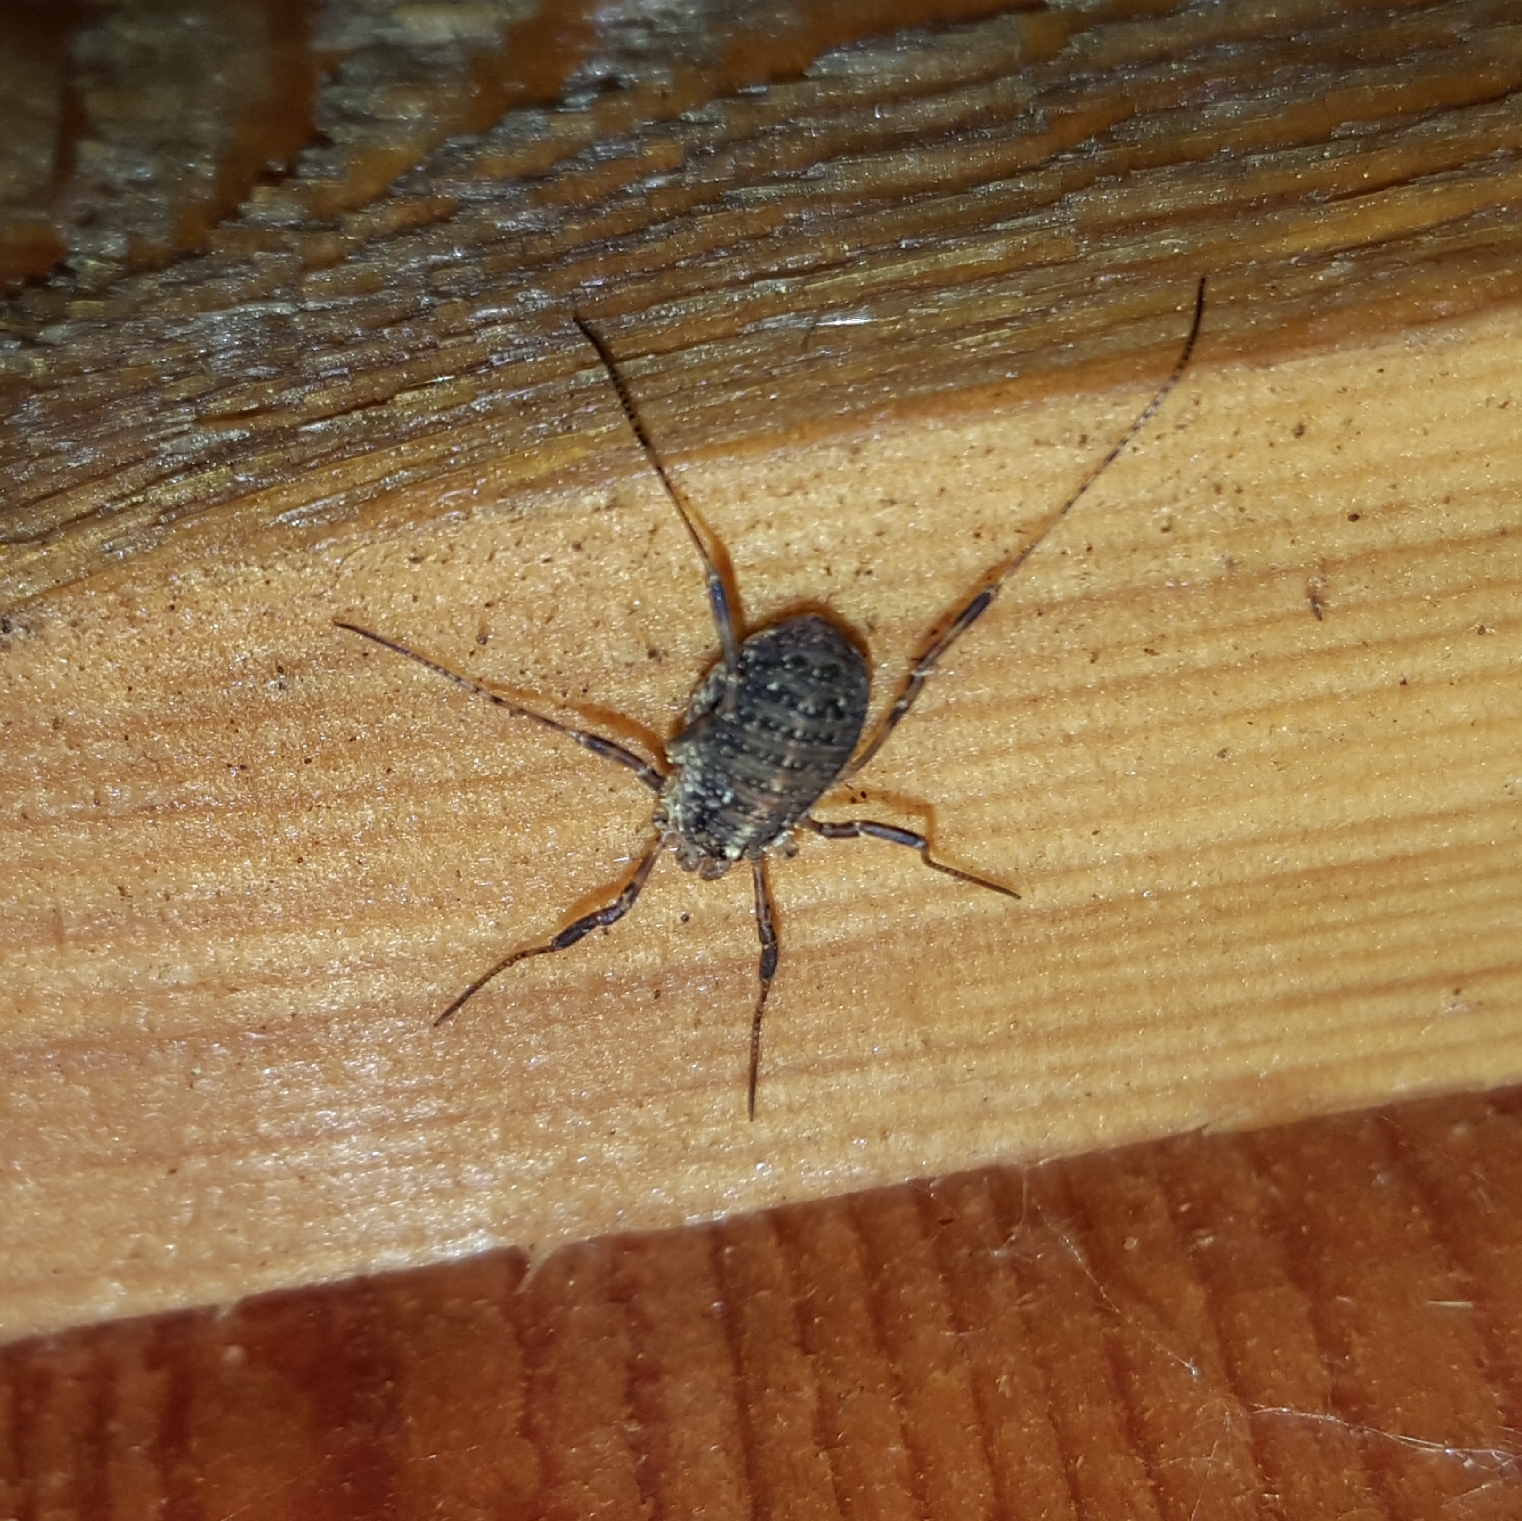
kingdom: Animalia
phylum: Arthropoda
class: Arachnida
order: Opiliones
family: Phalangiidae
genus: Paroligolophus
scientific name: Paroligolophus agrestis
